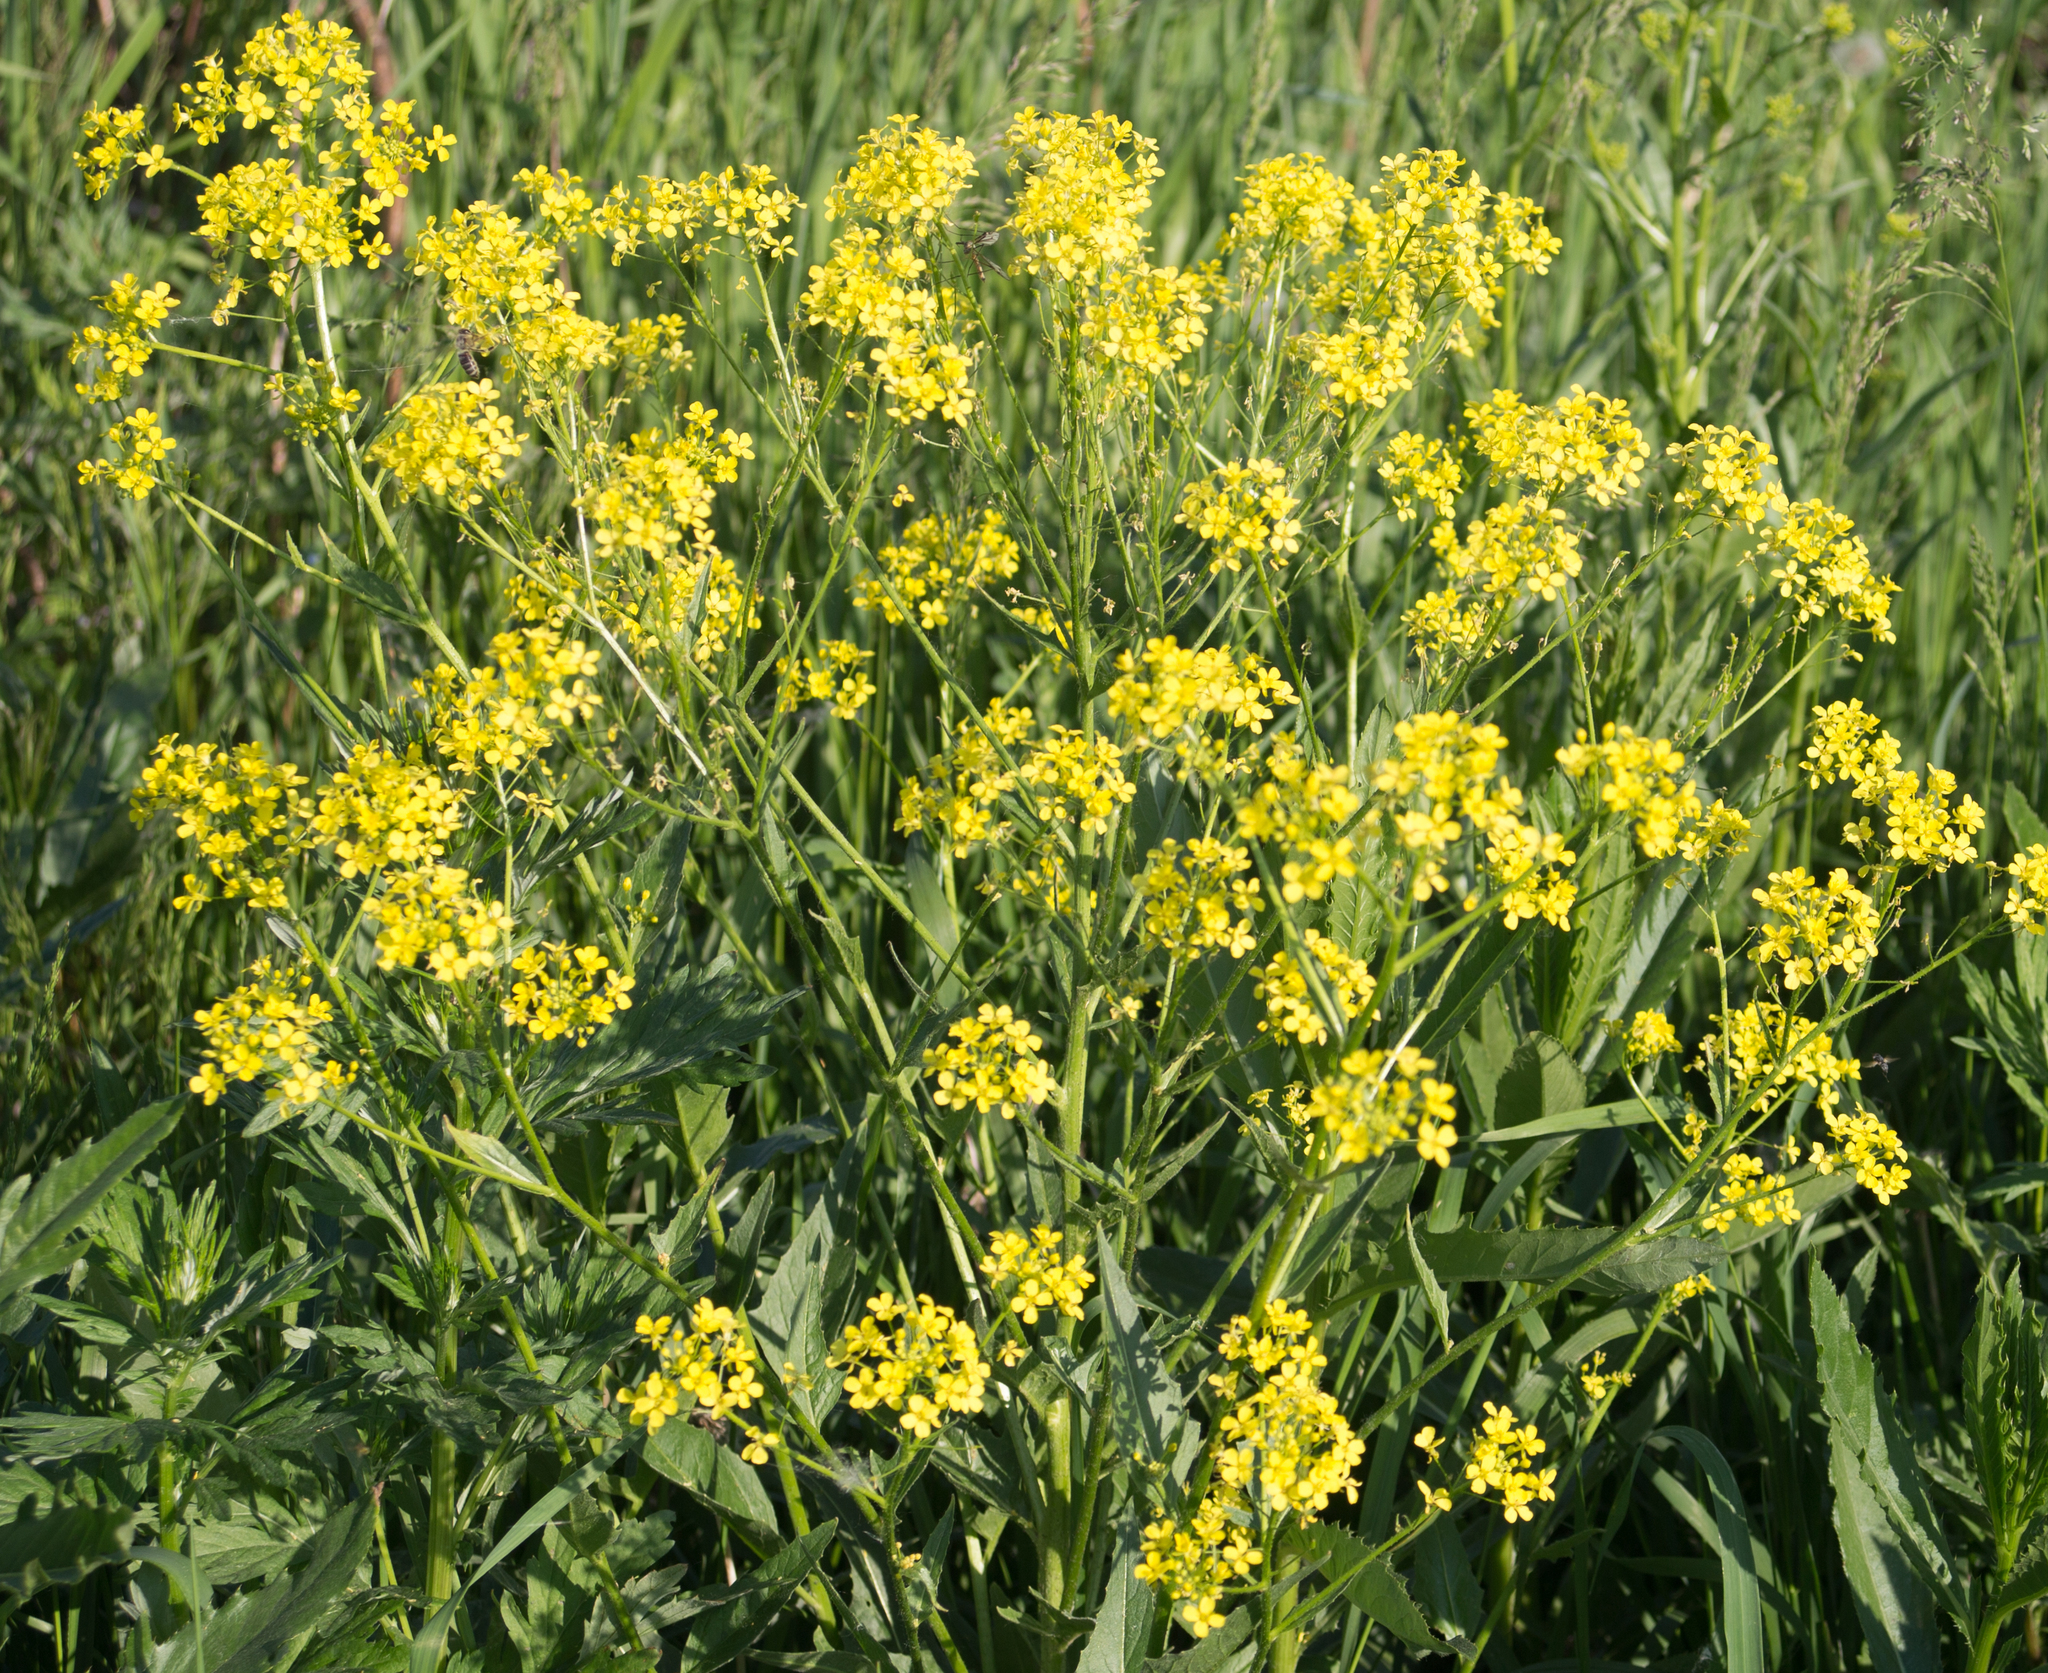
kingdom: Plantae
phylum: Tracheophyta
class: Magnoliopsida
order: Brassicales
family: Brassicaceae
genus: Bunias
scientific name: Bunias orientalis
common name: Warty-cabbage
